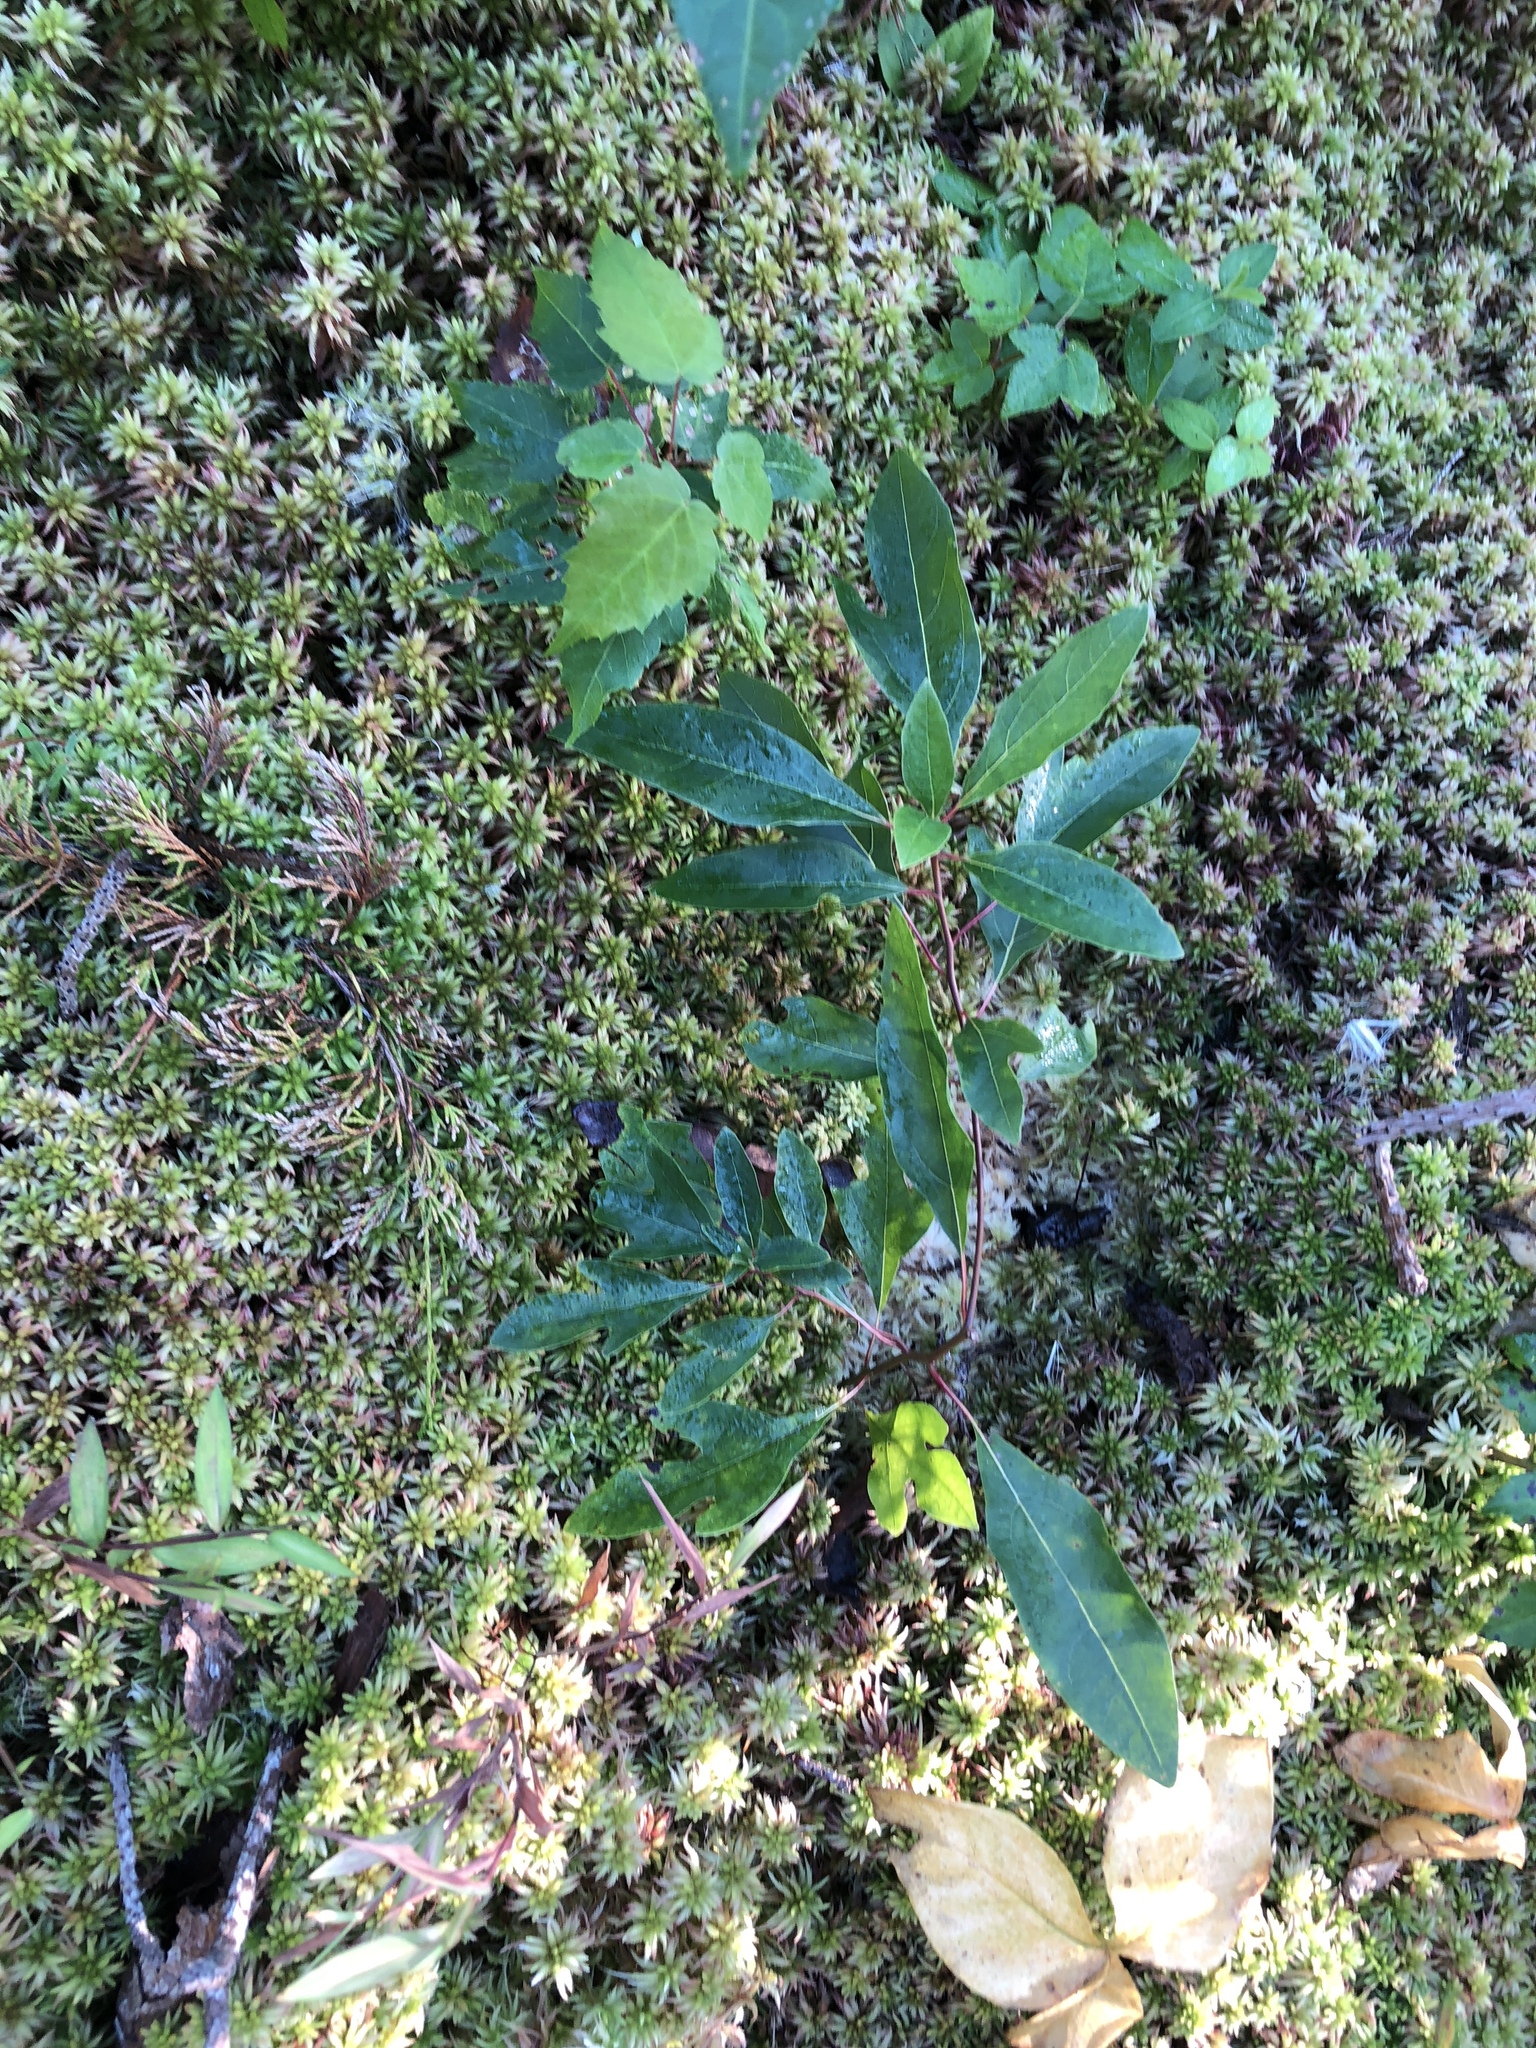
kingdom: Plantae
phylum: Tracheophyta
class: Magnoliopsida
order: Laurales
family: Lauraceae
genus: Sassafras
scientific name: Sassafras albidum
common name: Sassafras
